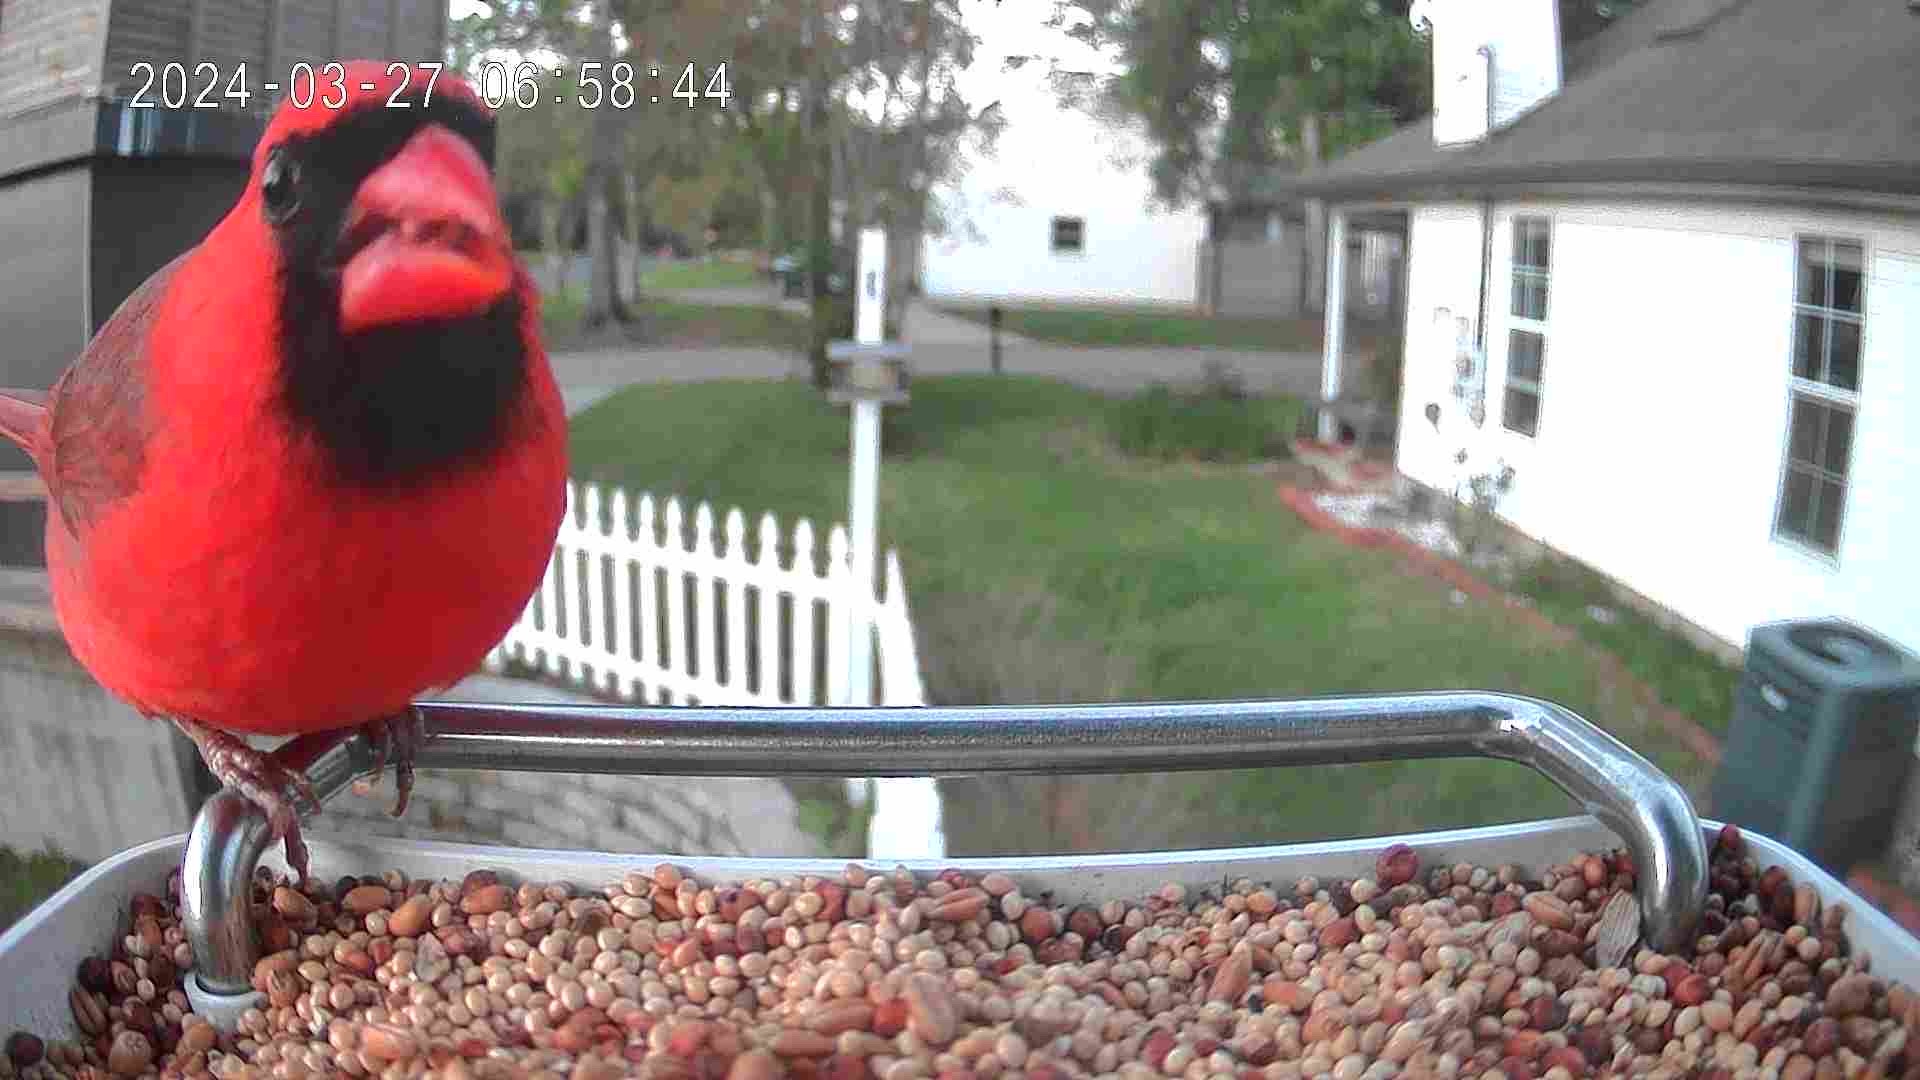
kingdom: Animalia
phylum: Chordata
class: Aves
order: Passeriformes
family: Cardinalidae
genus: Cardinalis
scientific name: Cardinalis cardinalis
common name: Northern cardinal
